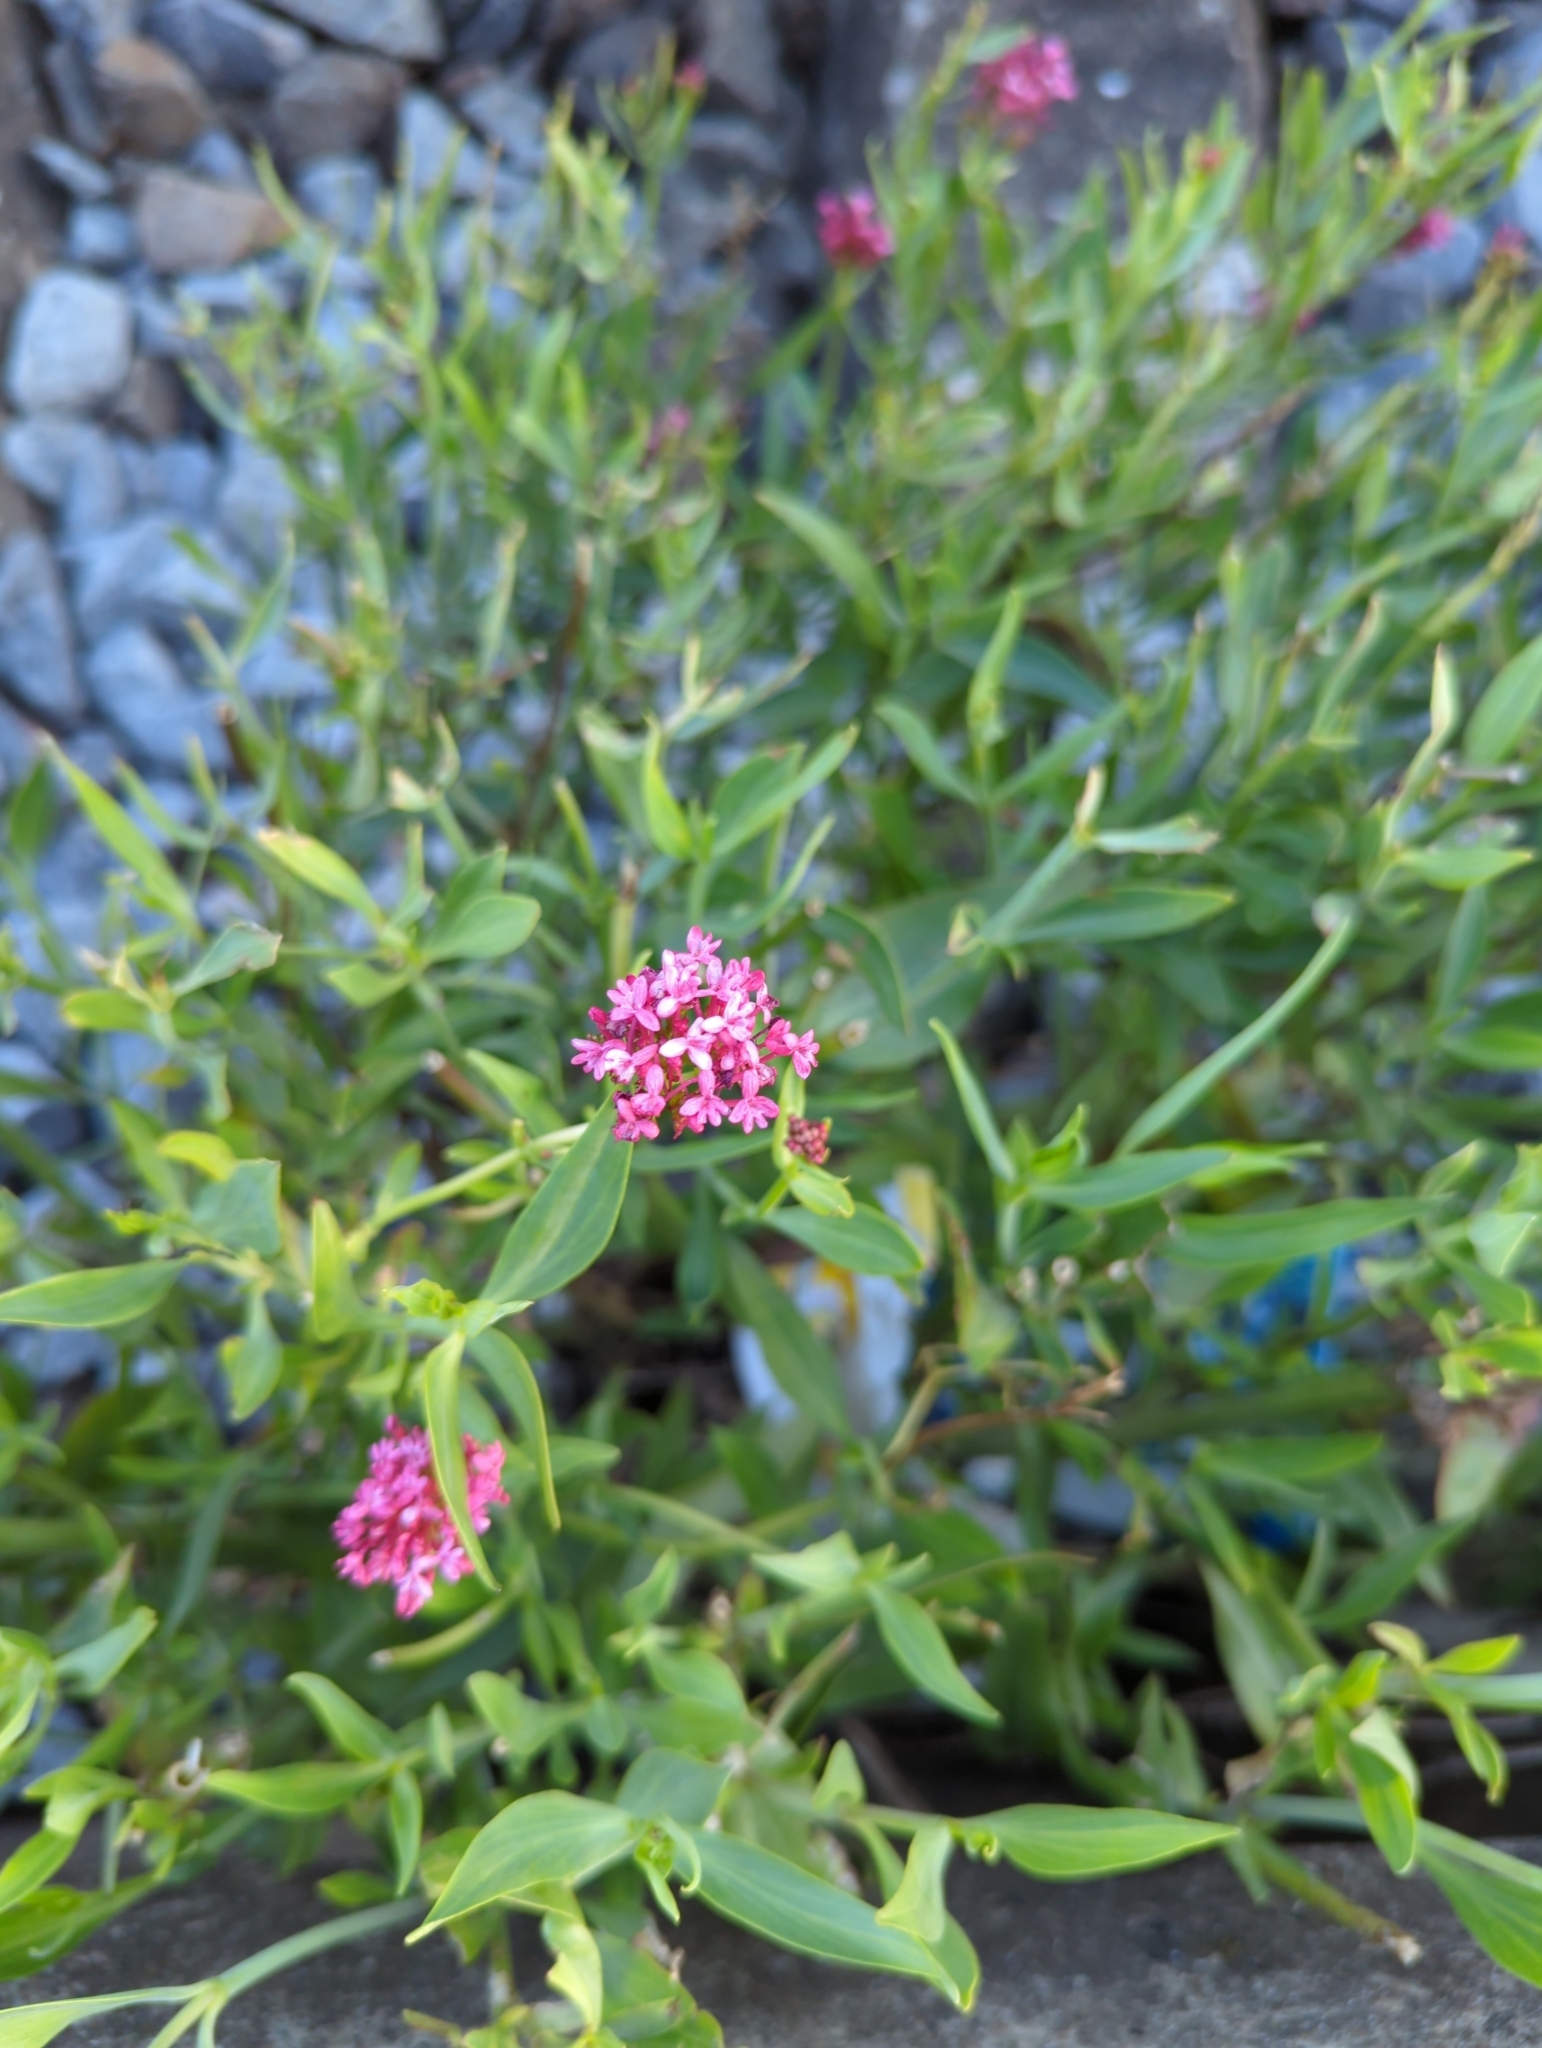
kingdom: Plantae
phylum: Tracheophyta
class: Magnoliopsida
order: Dipsacales
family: Caprifoliaceae
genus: Centranthus
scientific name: Centranthus ruber
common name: Red valerian
